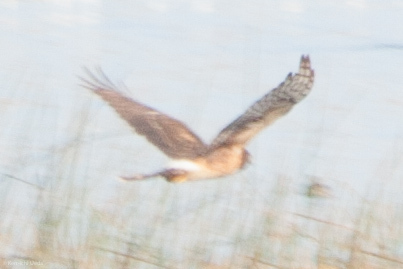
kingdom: Animalia
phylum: Chordata
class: Aves
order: Accipitriformes
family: Accipitridae
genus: Circus
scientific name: Circus cyaneus
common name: Hen harrier
